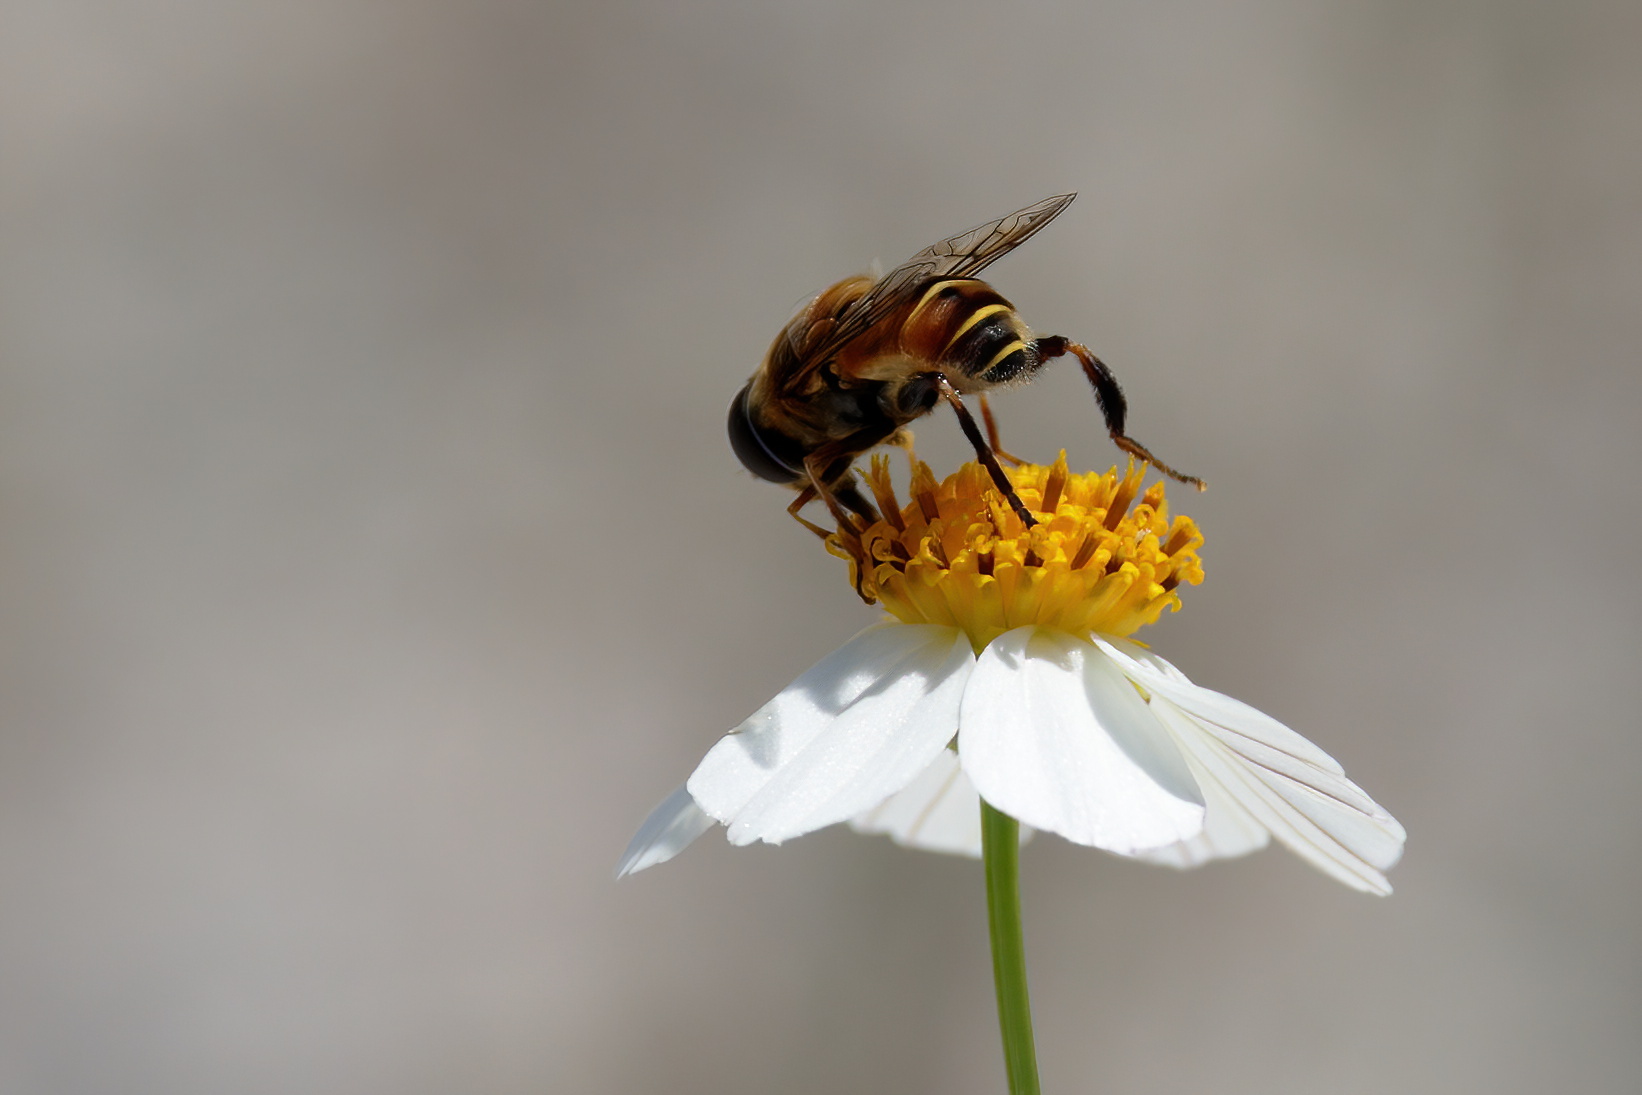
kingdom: Animalia
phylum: Arthropoda
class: Insecta
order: Diptera
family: Syrphidae
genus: Palpada
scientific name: Palpada vinetorum
